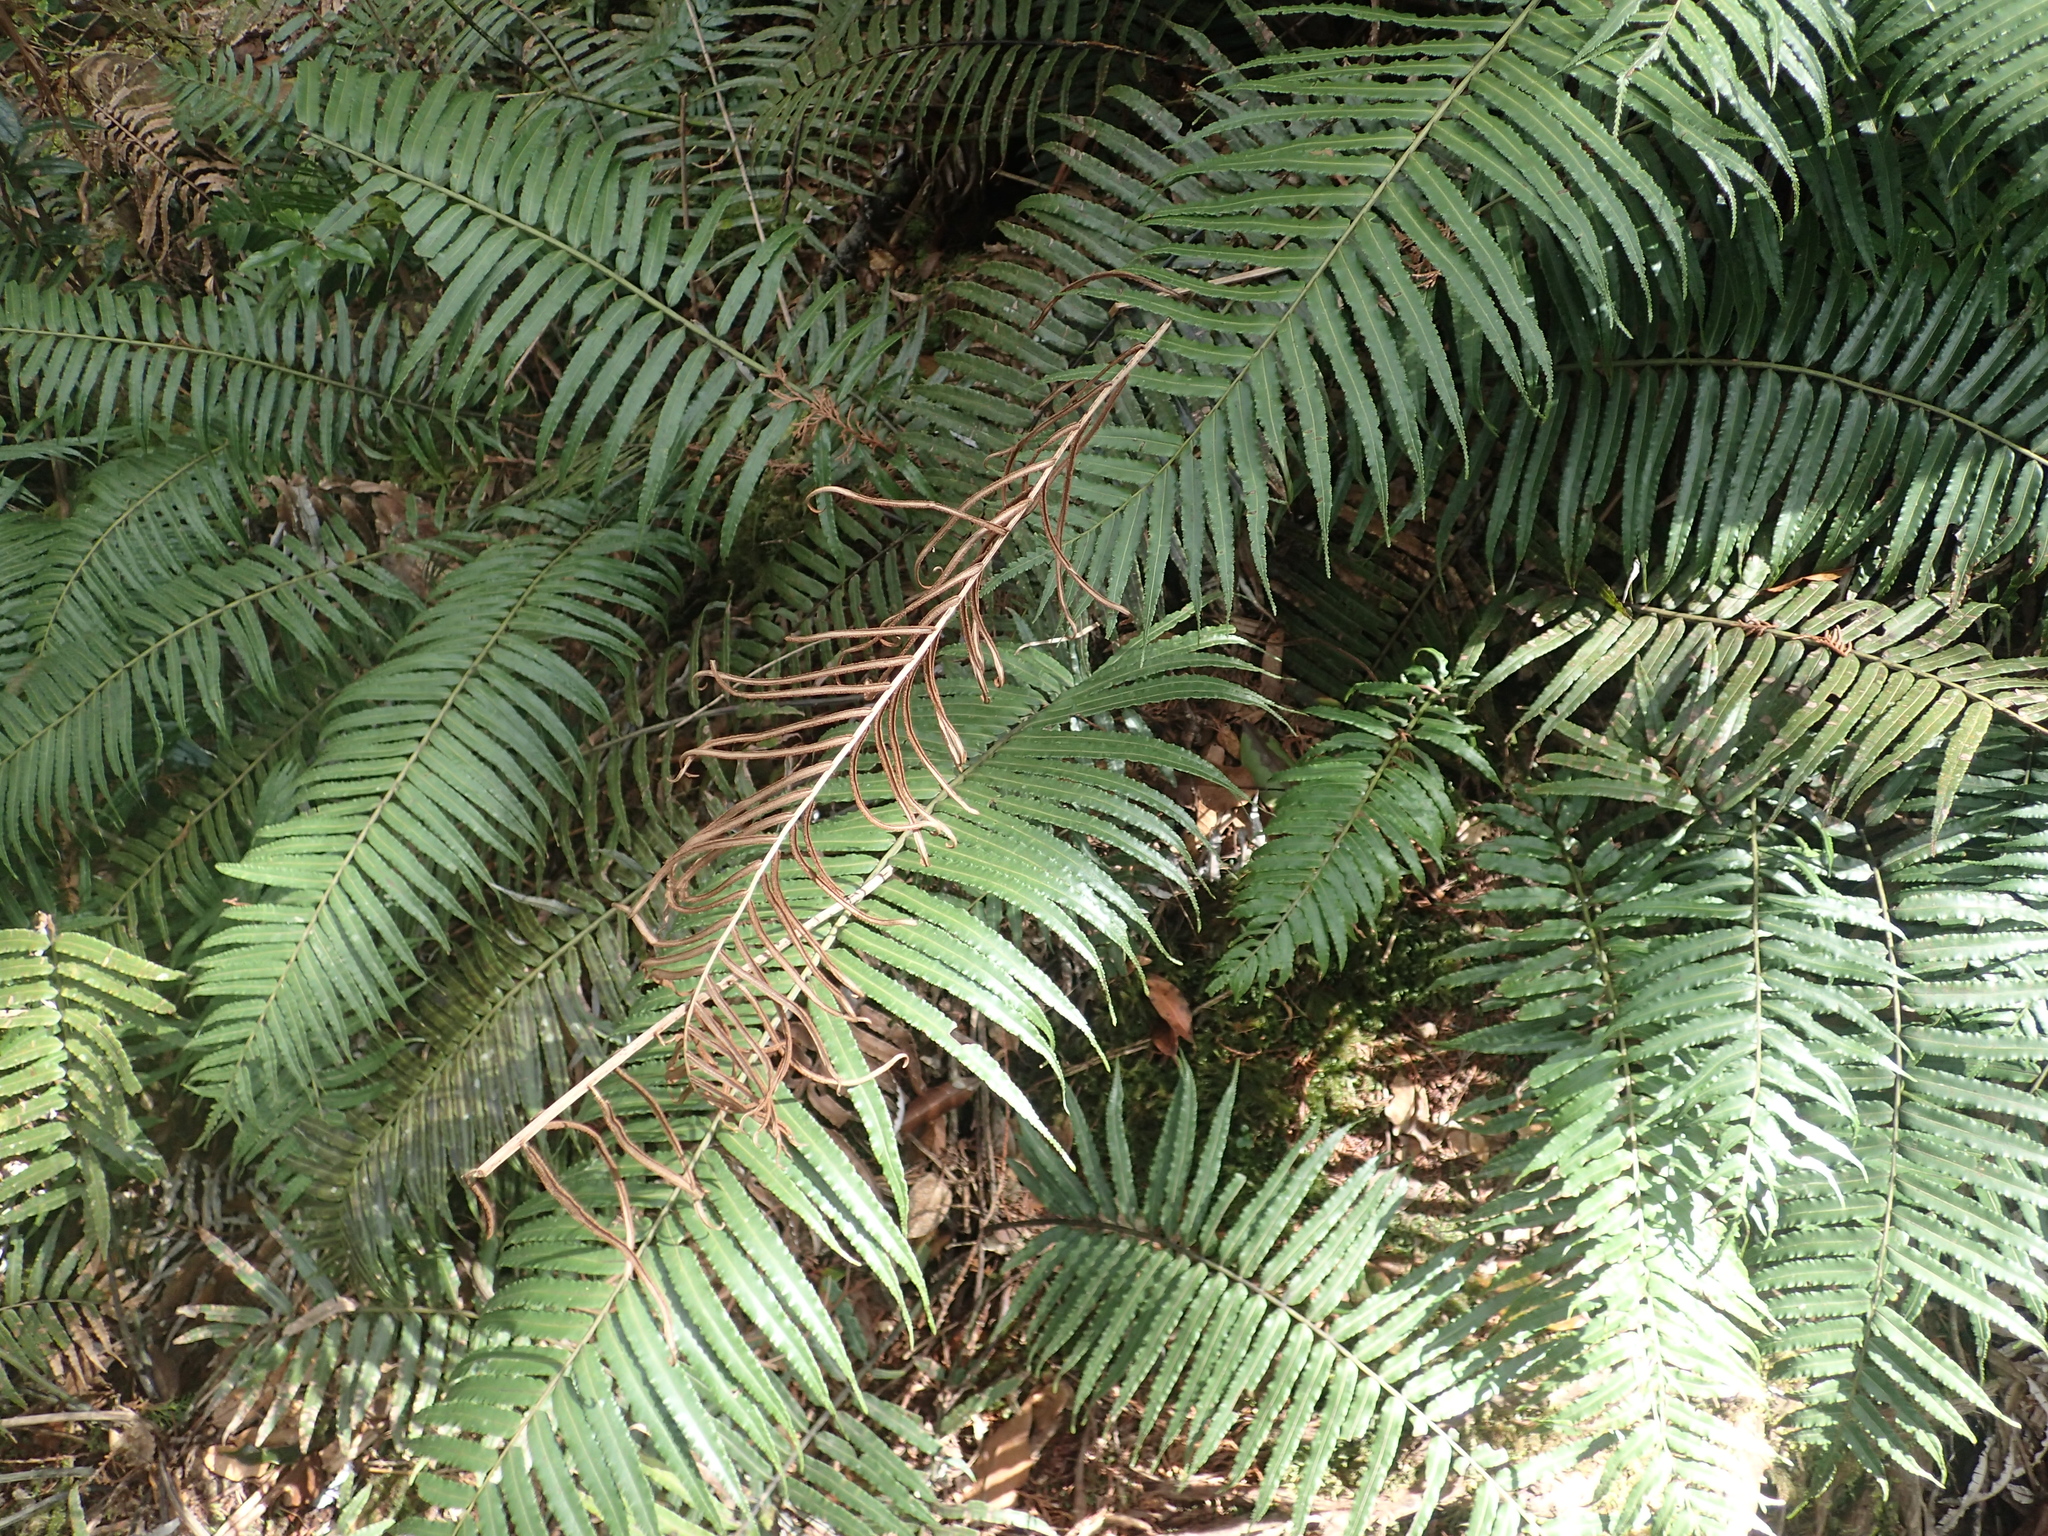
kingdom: Plantae
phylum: Tracheophyta
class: Polypodiopsida
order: Cyatheales
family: Plagiogyriaceae
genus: Plagiogyria
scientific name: Plagiogyria glauca
